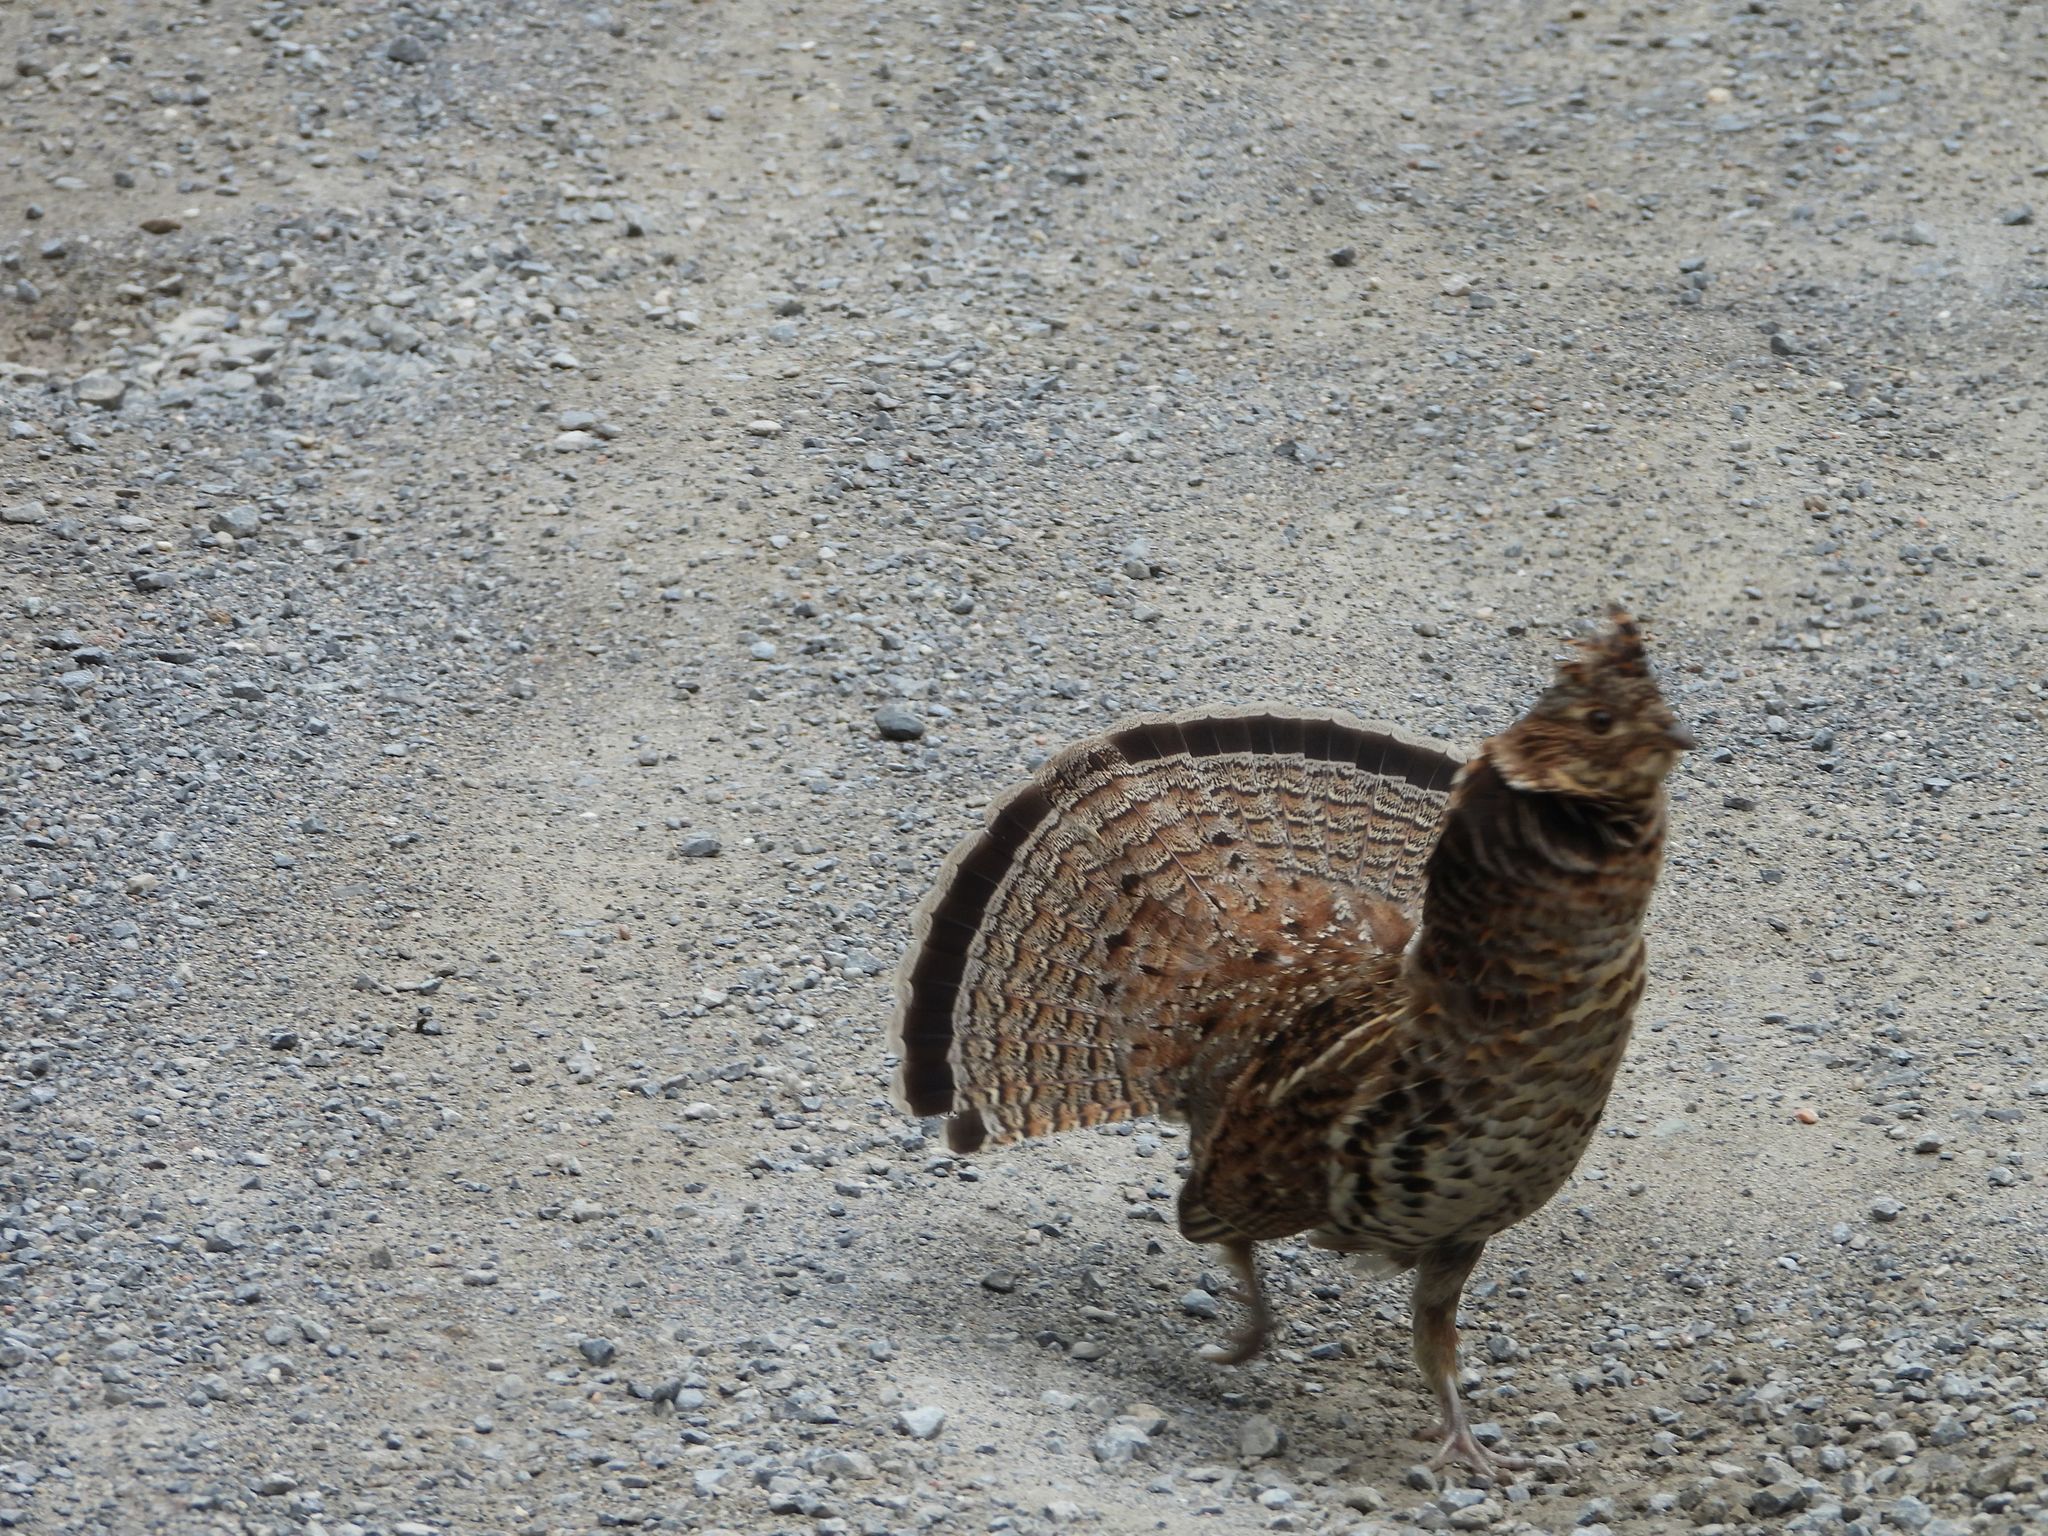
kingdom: Animalia
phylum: Chordata
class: Aves
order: Galliformes
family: Phasianidae
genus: Bonasa
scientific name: Bonasa umbellus
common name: Ruffed grouse
